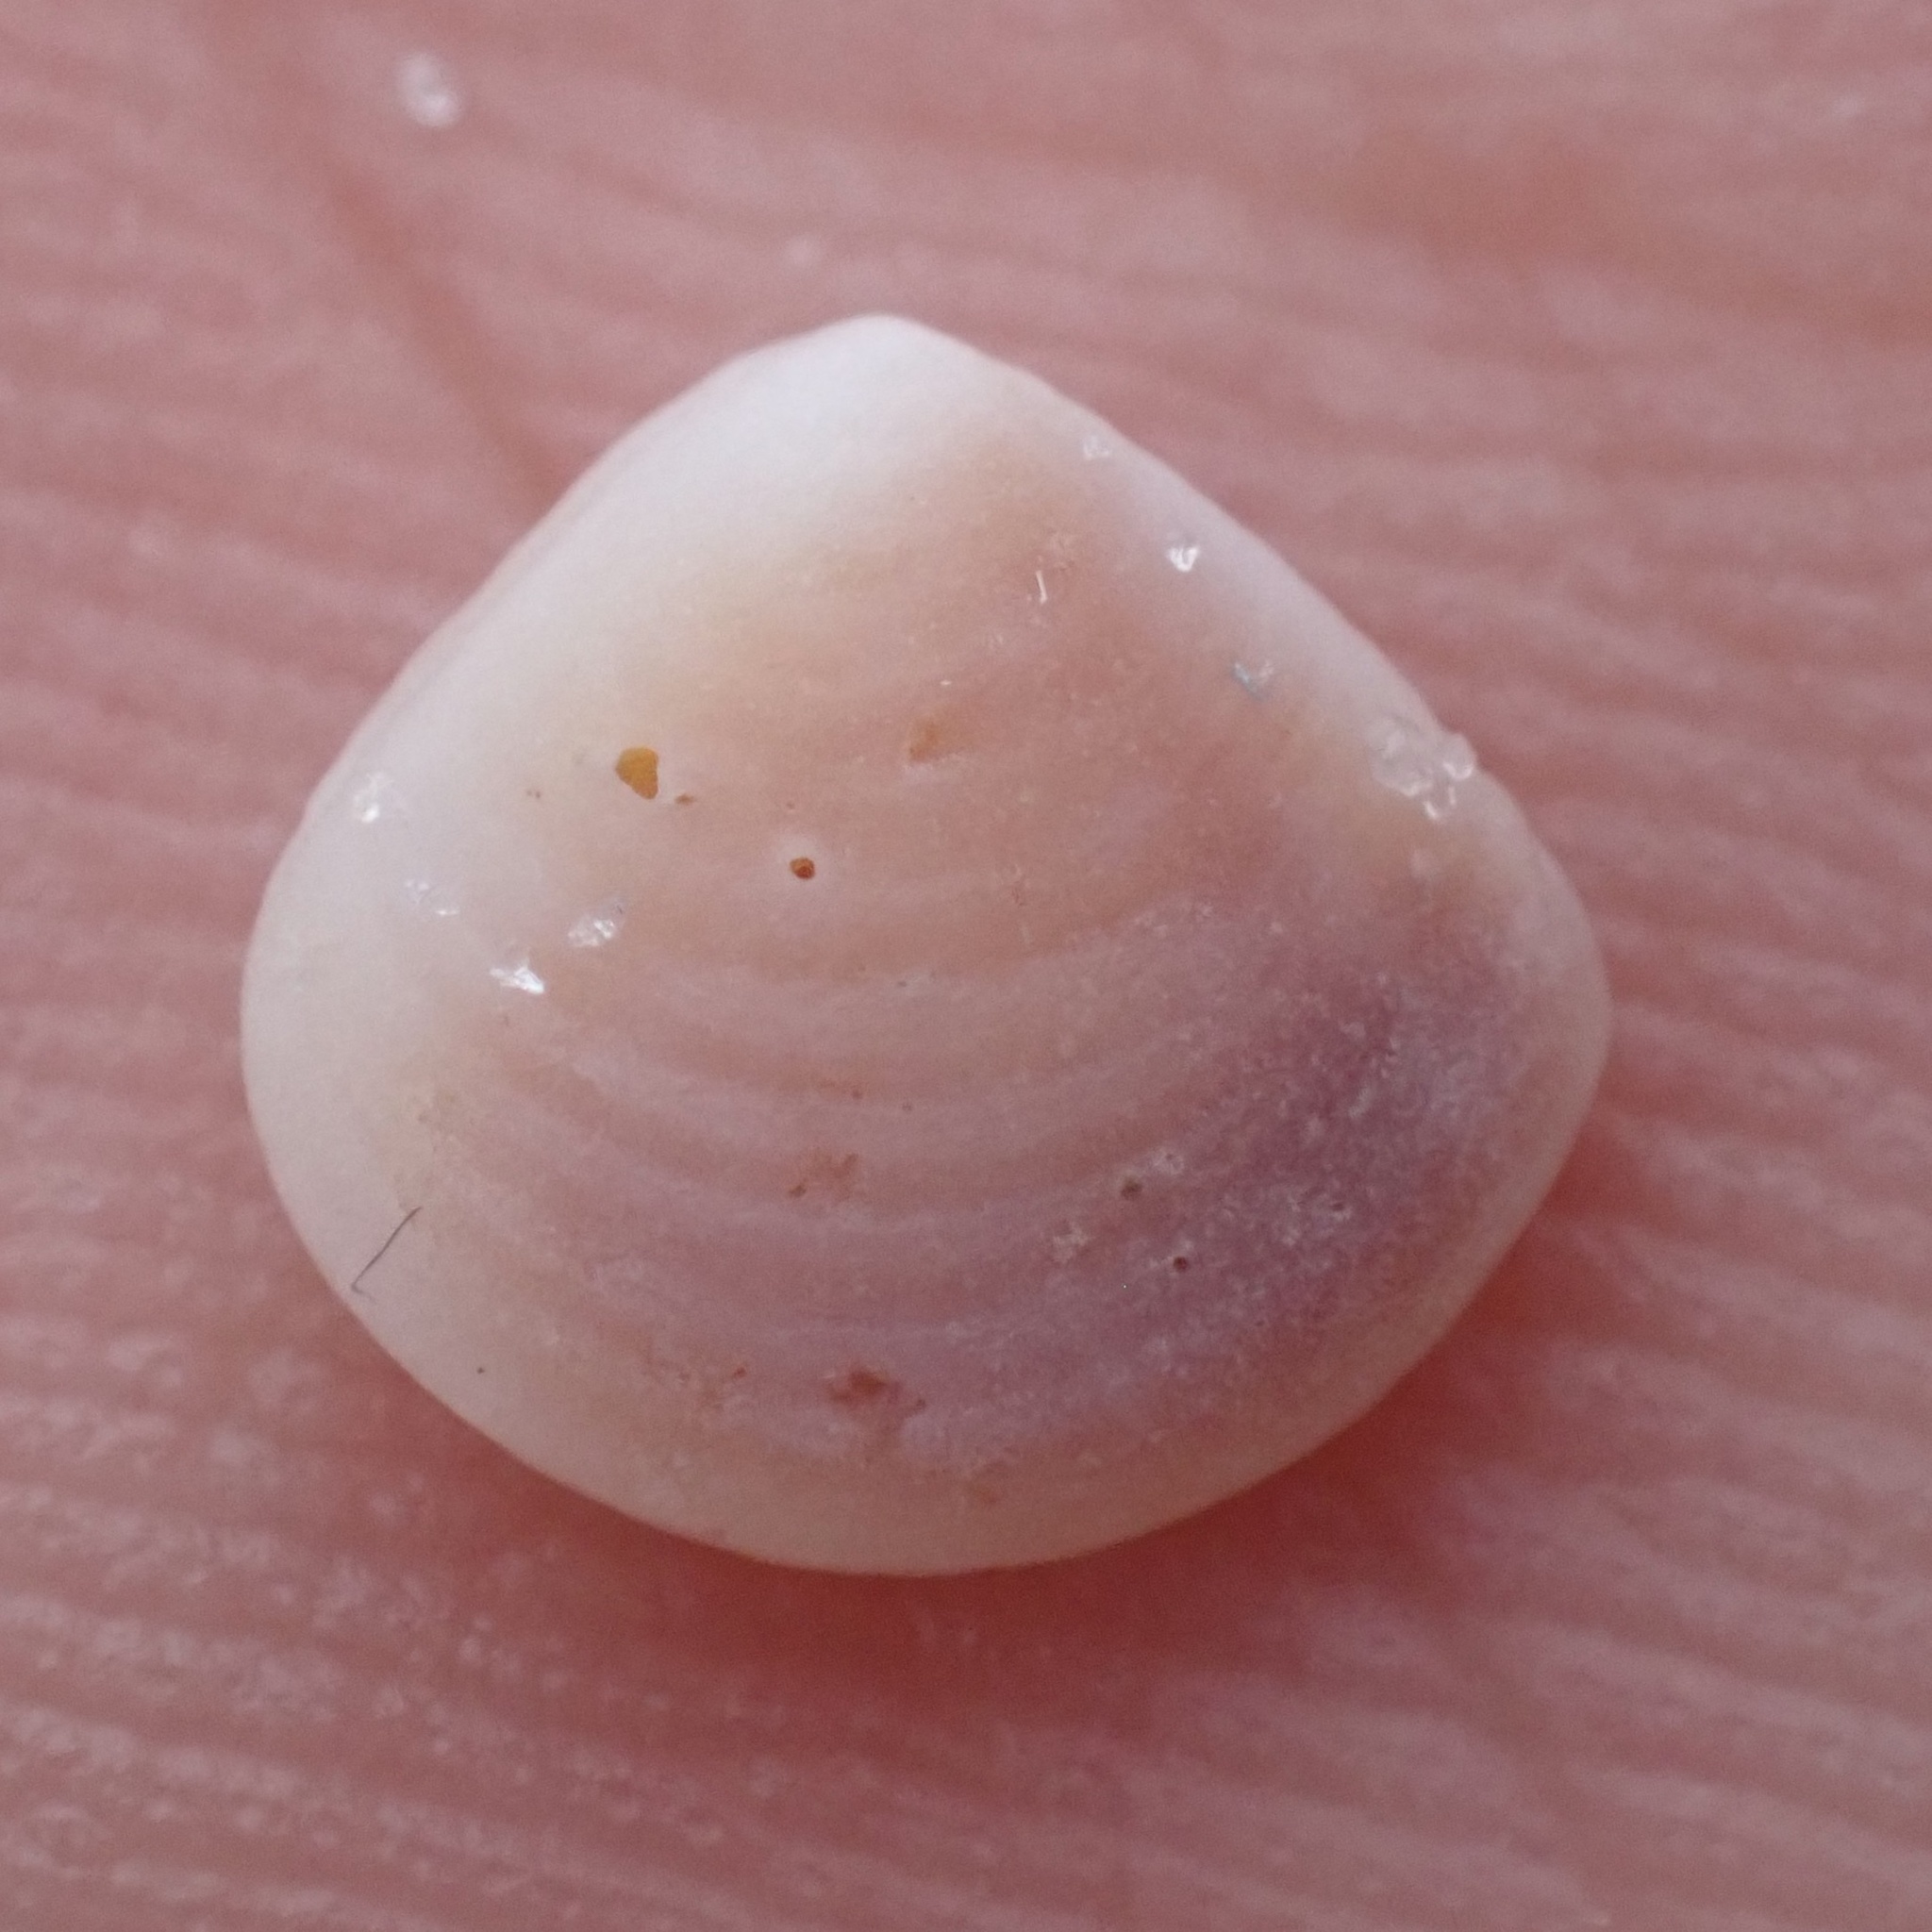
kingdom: Animalia
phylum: Mollusca
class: Bivalvia
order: Carditida
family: Crassatellidae
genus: Crassinella
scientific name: Crassinella lunulata
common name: Lunate crassinella
